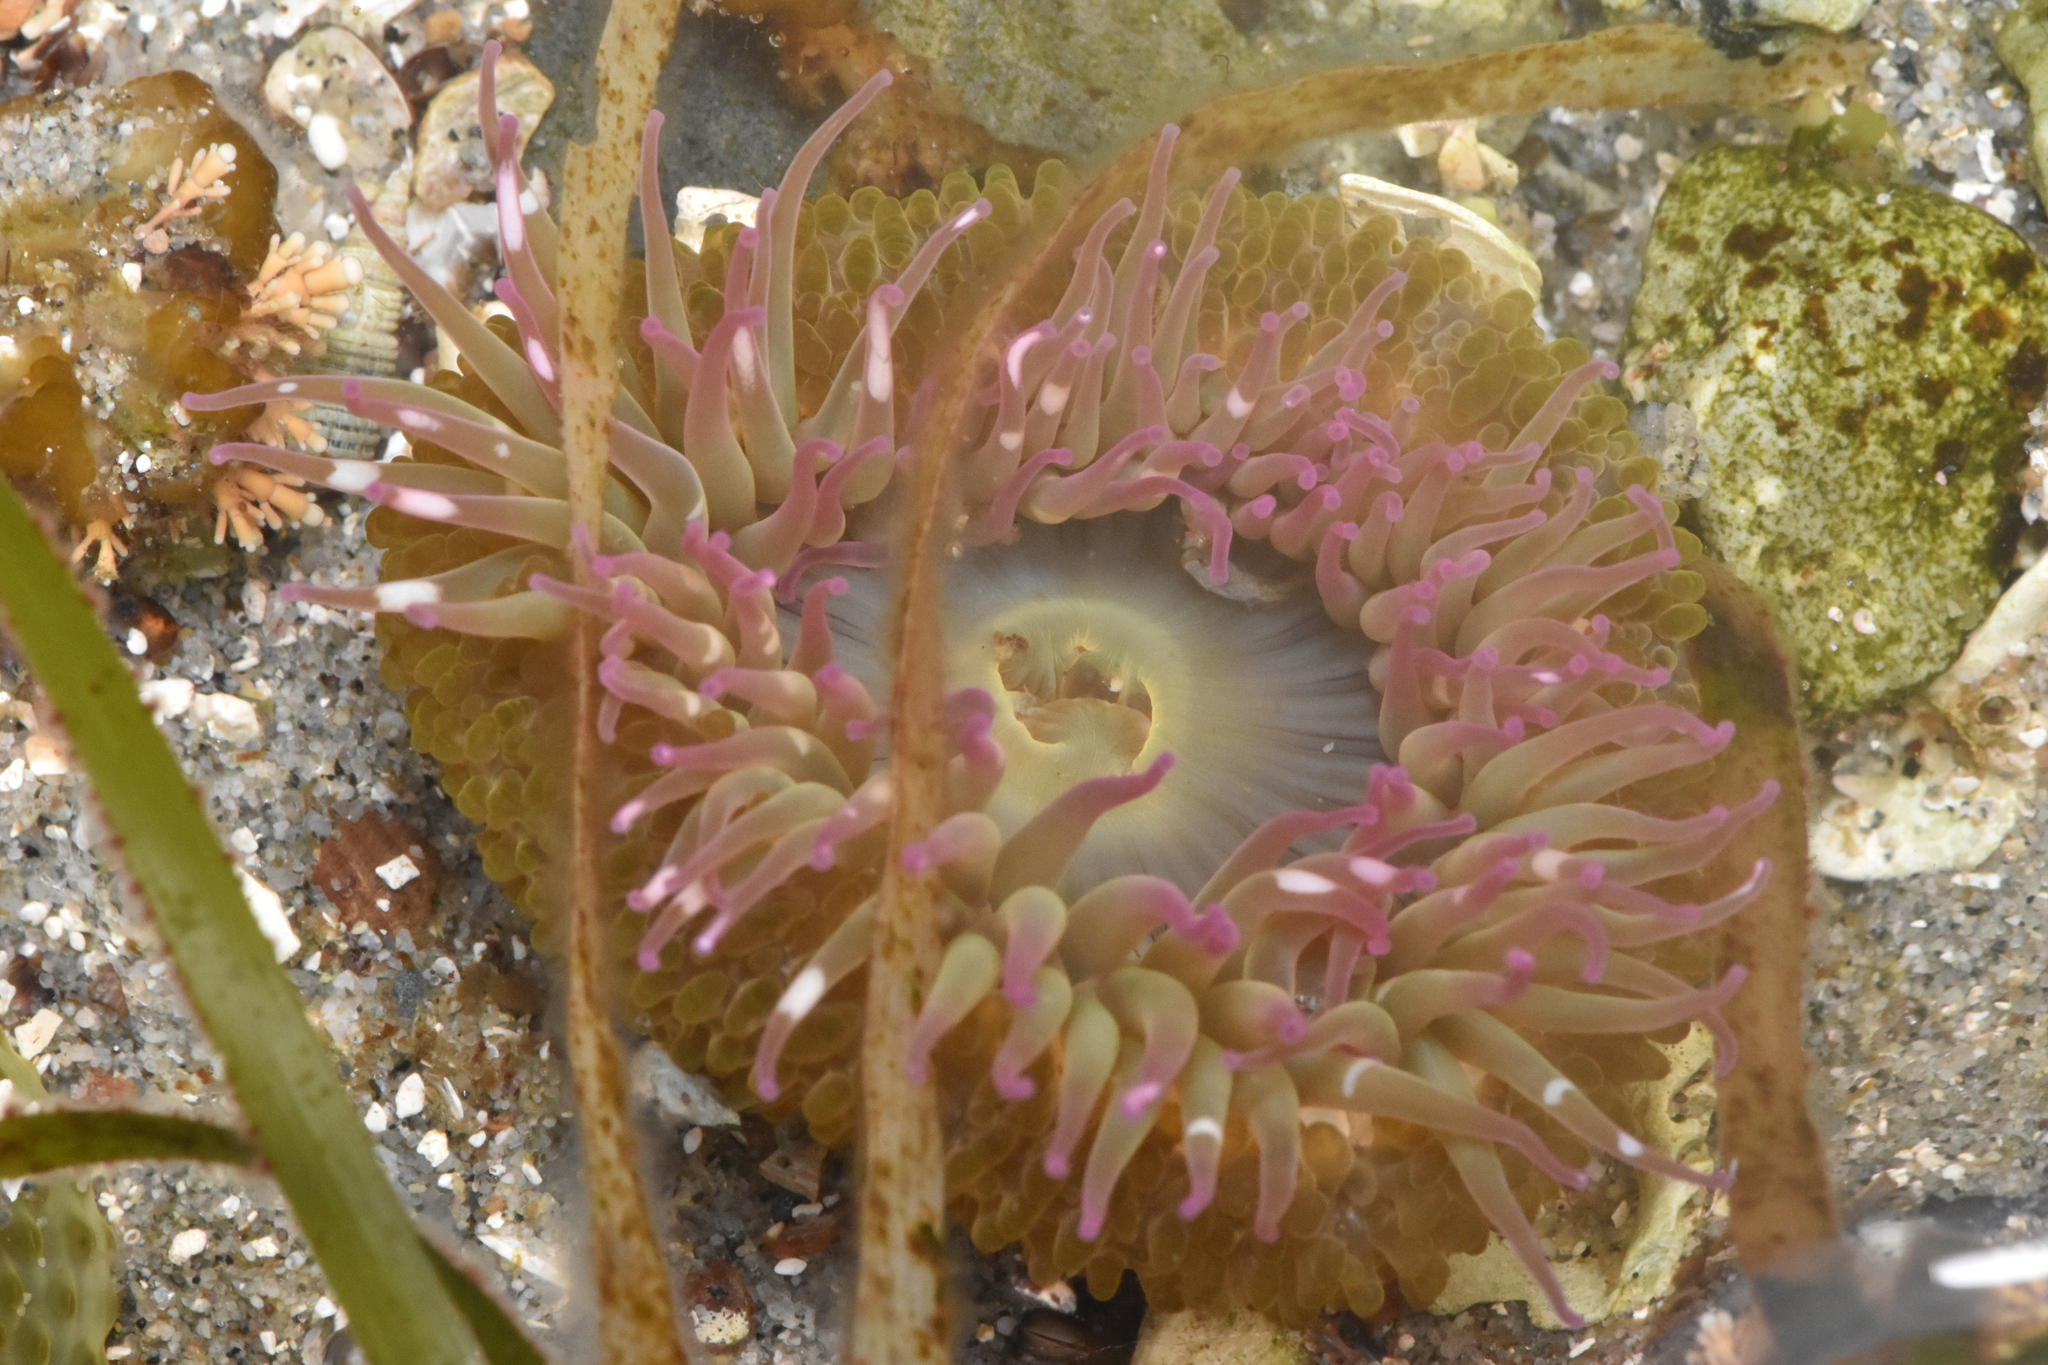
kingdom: Animalia
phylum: Cnidaria
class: Anthozoa
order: Actiniaria
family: Actiniidae
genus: Anthopleura
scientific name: Anthopleura elegantissima
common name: Clonal anemone
